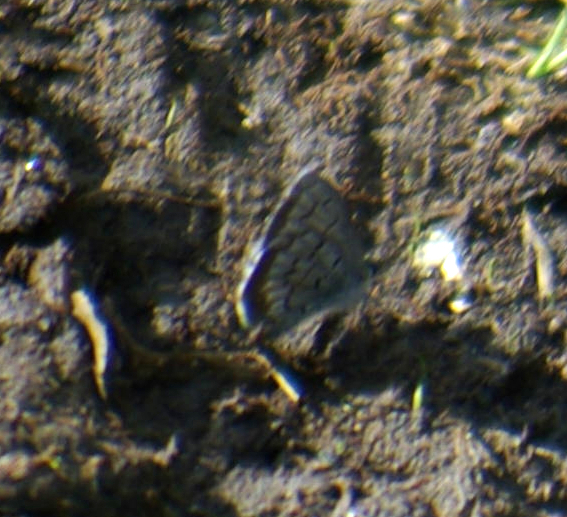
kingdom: Animalia
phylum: Arthropoda
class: Insecta
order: Lepidoptera
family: Lycaenidae
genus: Celastrina
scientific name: Celastrina lucia
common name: Lucia azure
